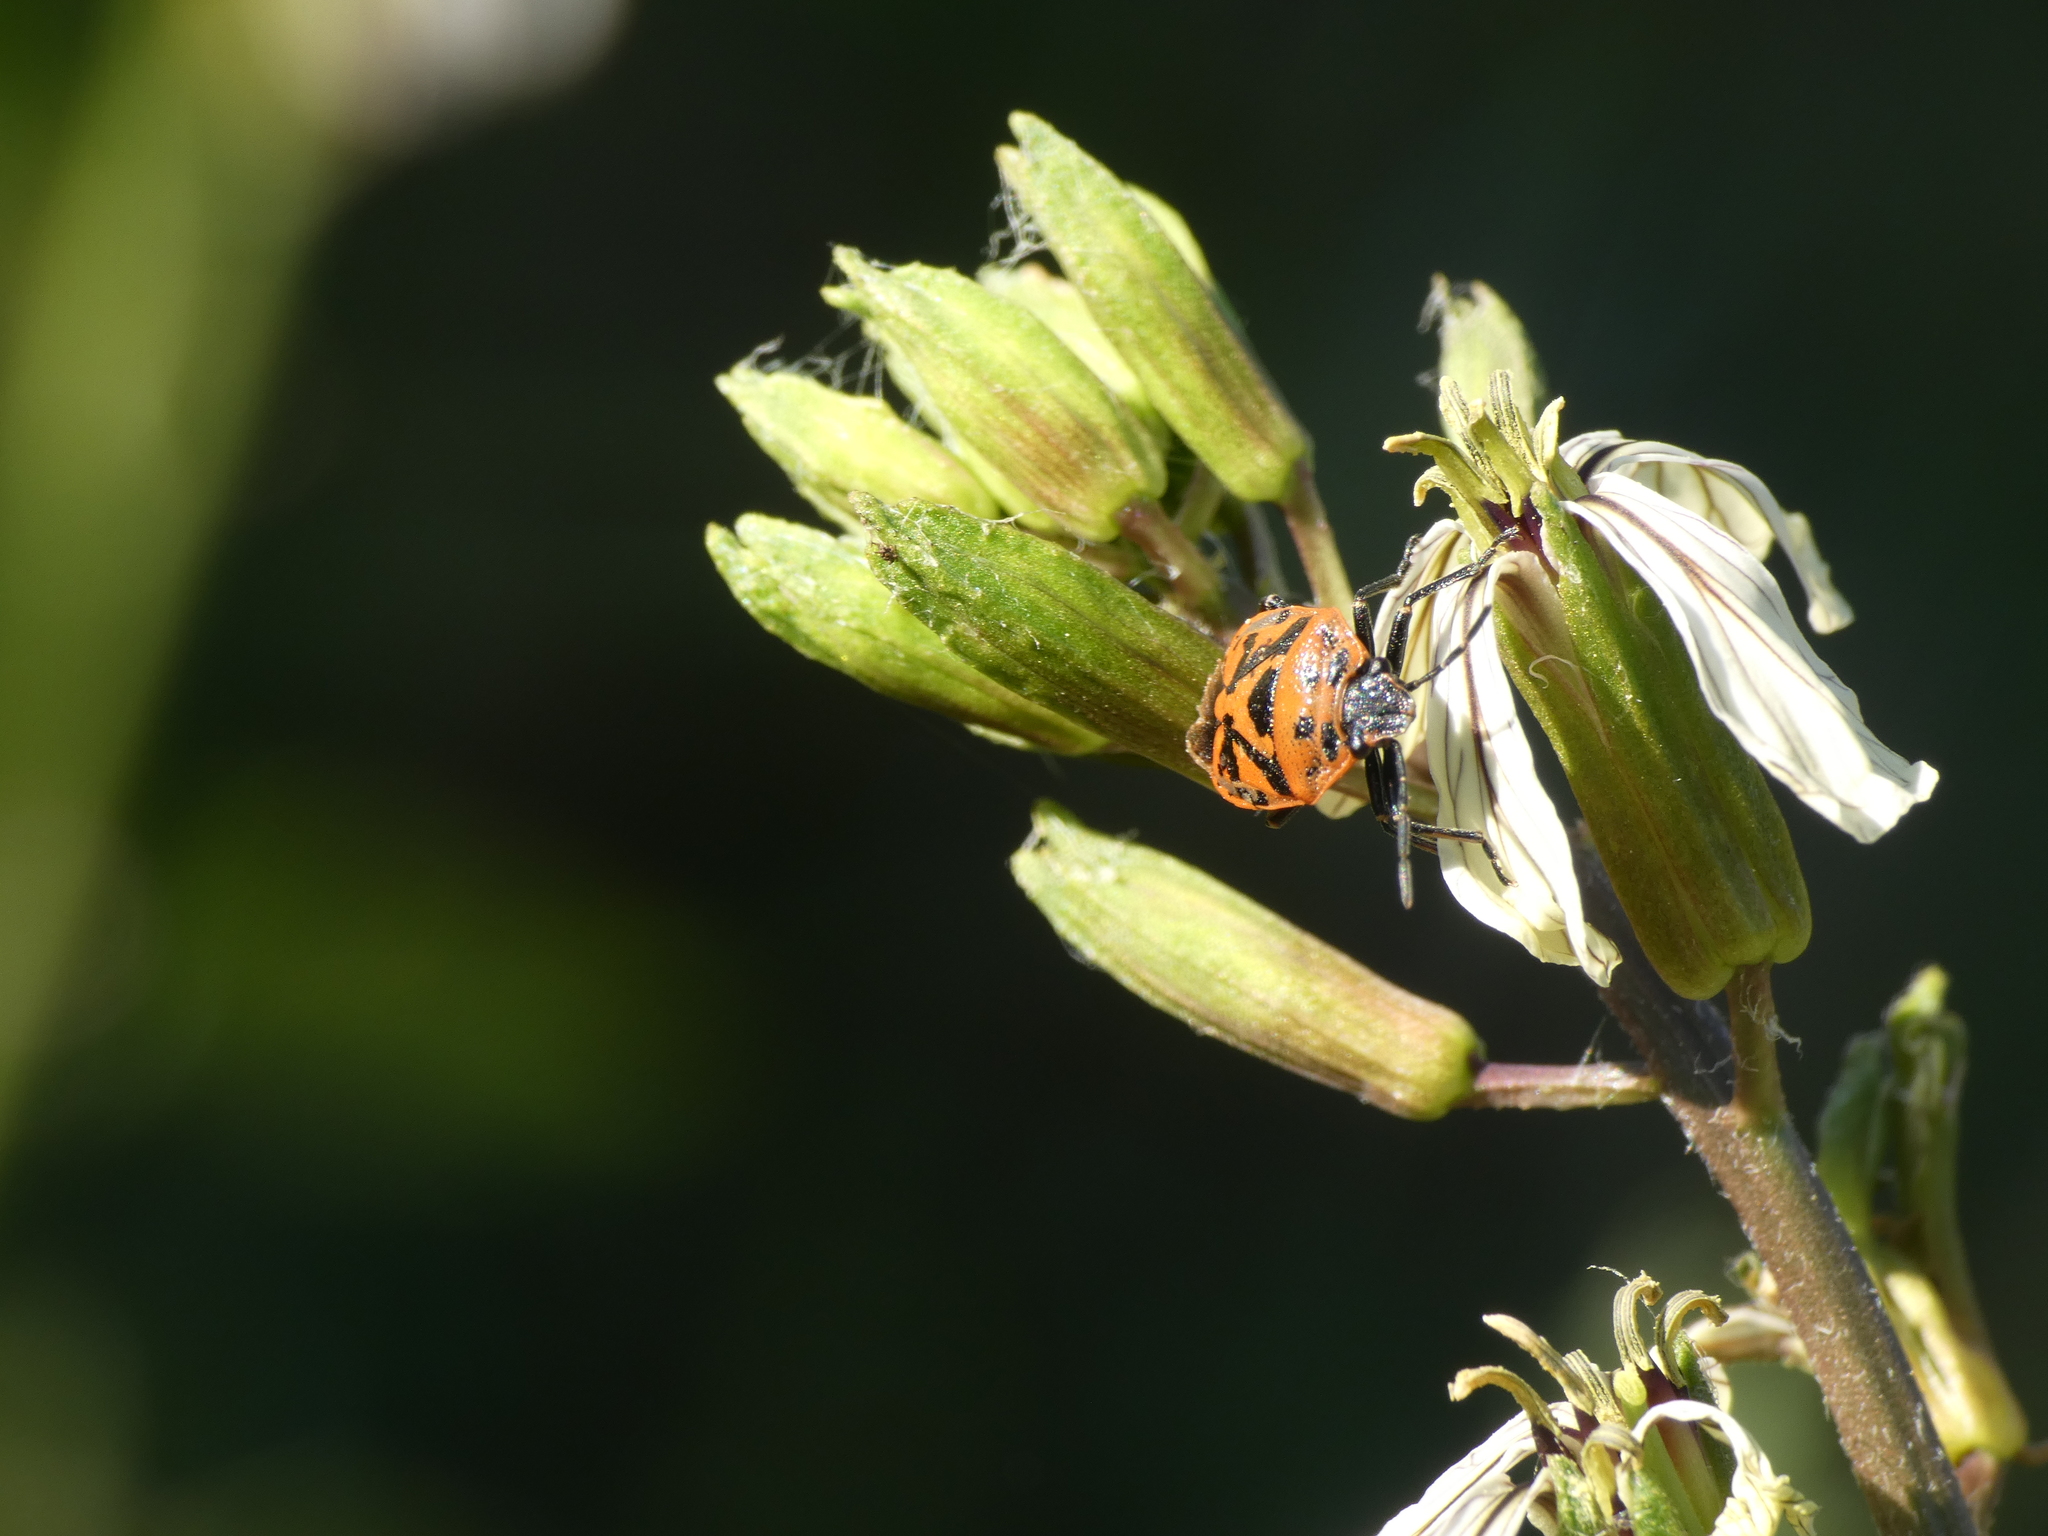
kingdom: Animalia
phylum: Arthropoda
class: Insecta
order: Hemiptera
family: Pentatomidae
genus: Eurydema
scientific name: Eurydema ornata
